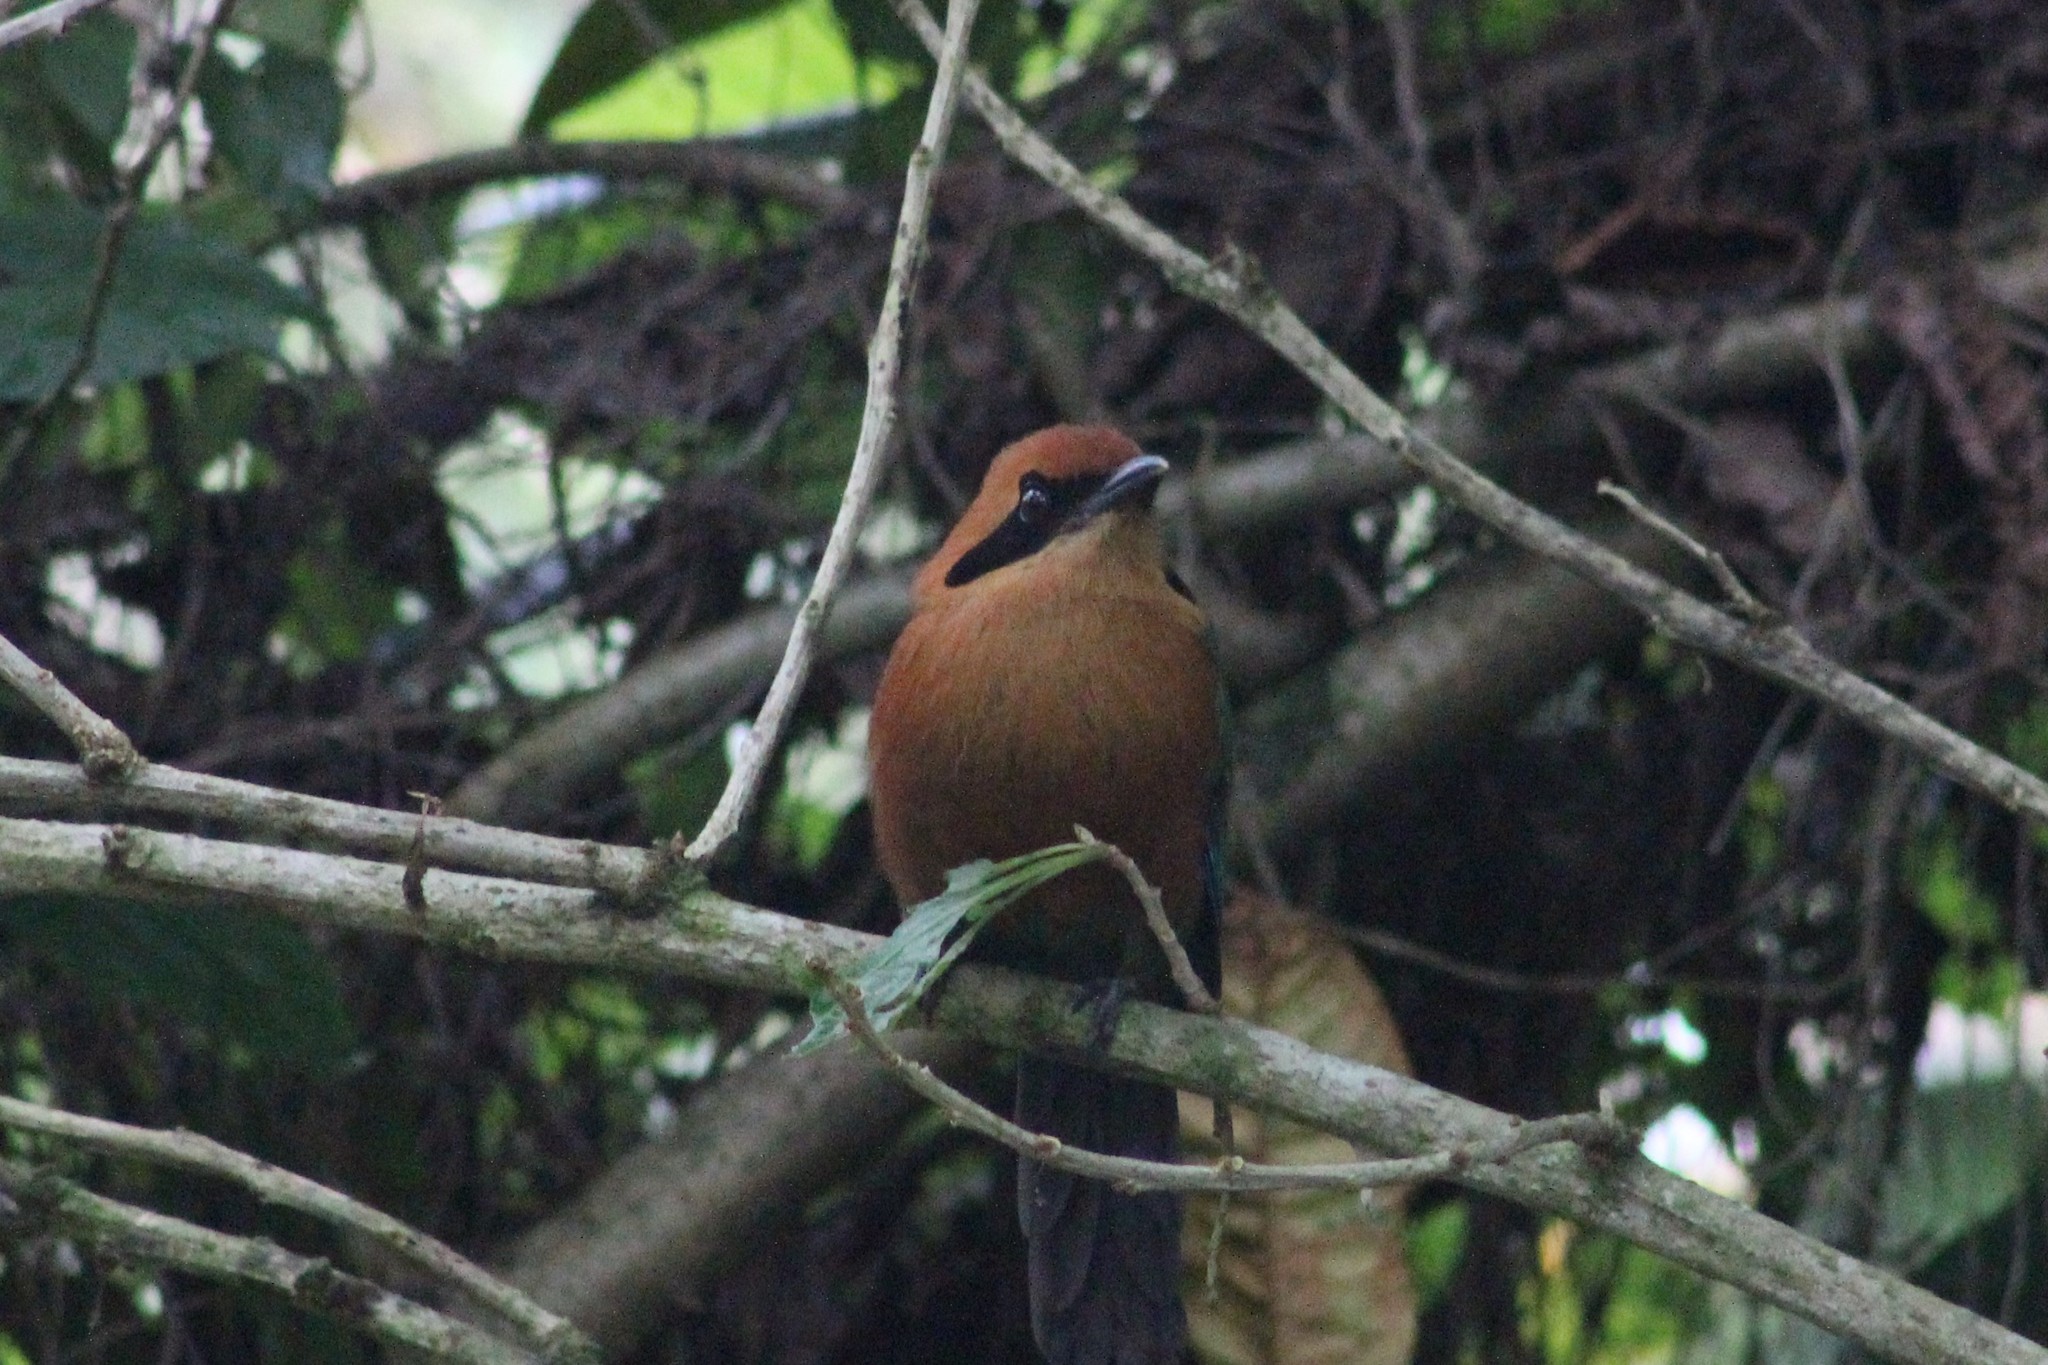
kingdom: Animalia
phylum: Chordata
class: Aves
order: Coraciiformes
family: Momotidae
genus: Baryphthengus
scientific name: Baryphthengus martii
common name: Rufous motmot
